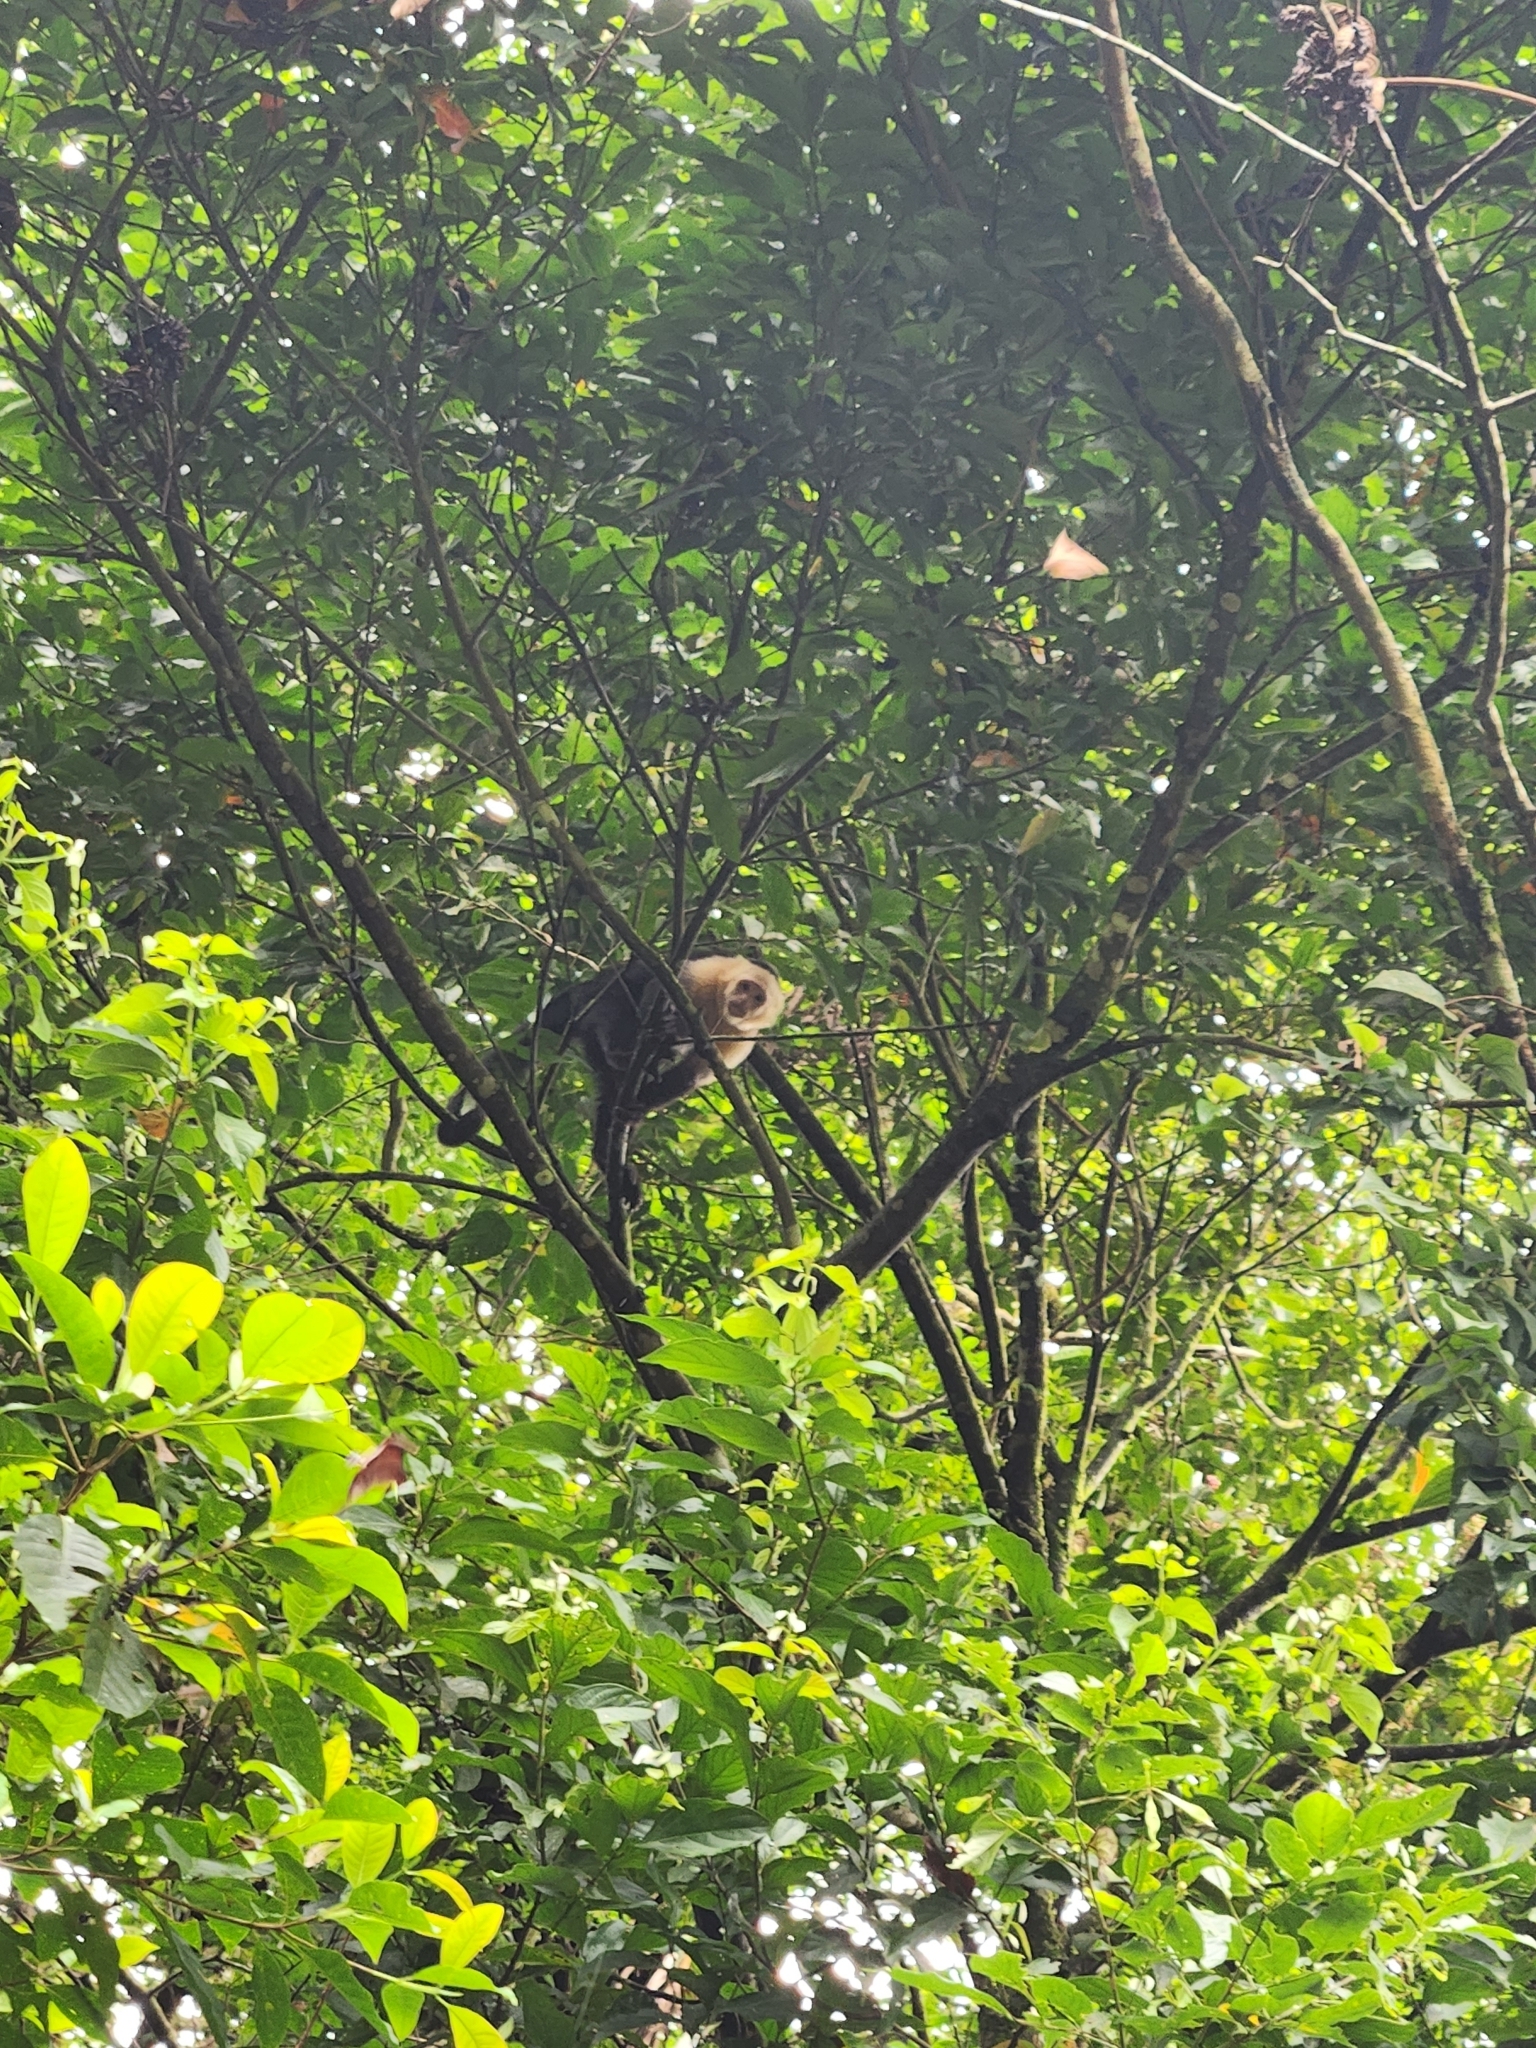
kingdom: Animalia
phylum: Chordata
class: Mammalia
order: Primates
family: Cebidae
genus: Cebus
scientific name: Cebus imitator
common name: Panamanian white-faced capuchin
